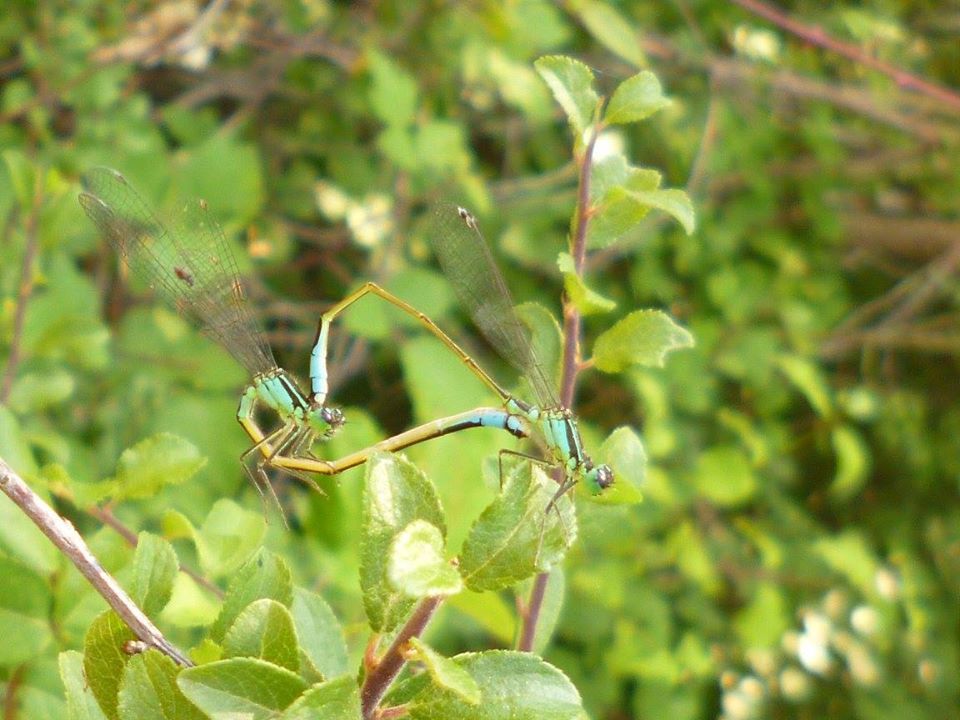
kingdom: Animalia
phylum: Arthropoda
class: Insecta
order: Odonata
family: Coenagrionidae
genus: Ischnura
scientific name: Ischnura elegans
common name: Blue-tailed damselfly
